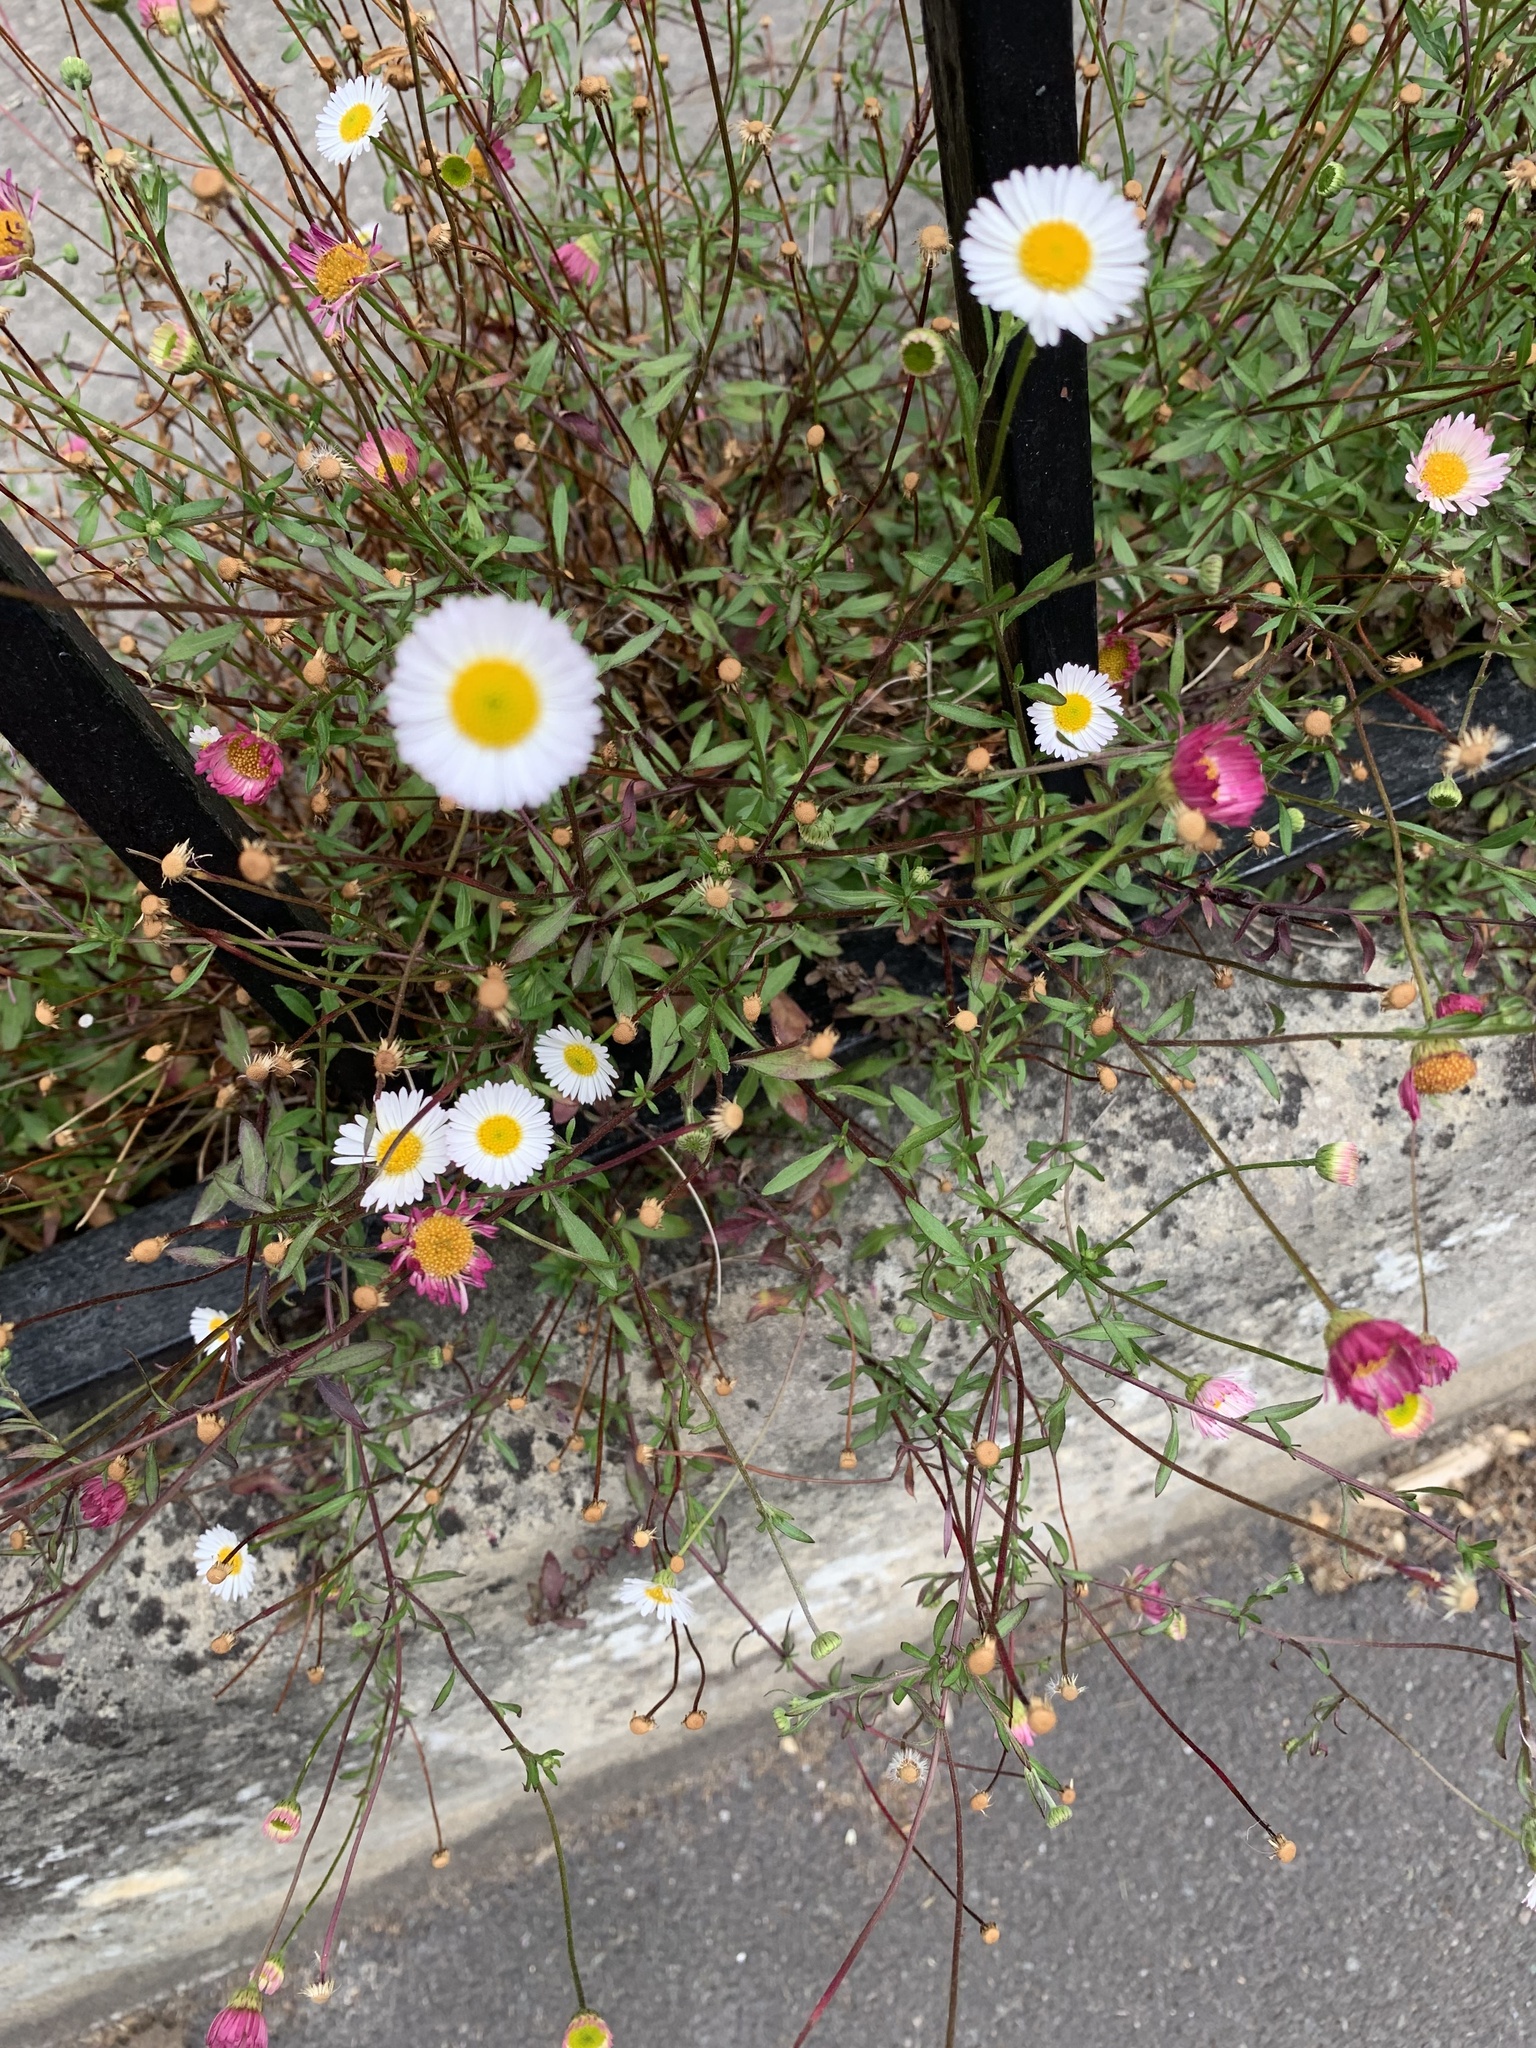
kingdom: Plantae
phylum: Tracheophyta
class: Magnoliopsida
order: Asterales
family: Asteraceae
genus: Erigeron
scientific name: Erigeron karvinskianus
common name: Mexican fleabane
